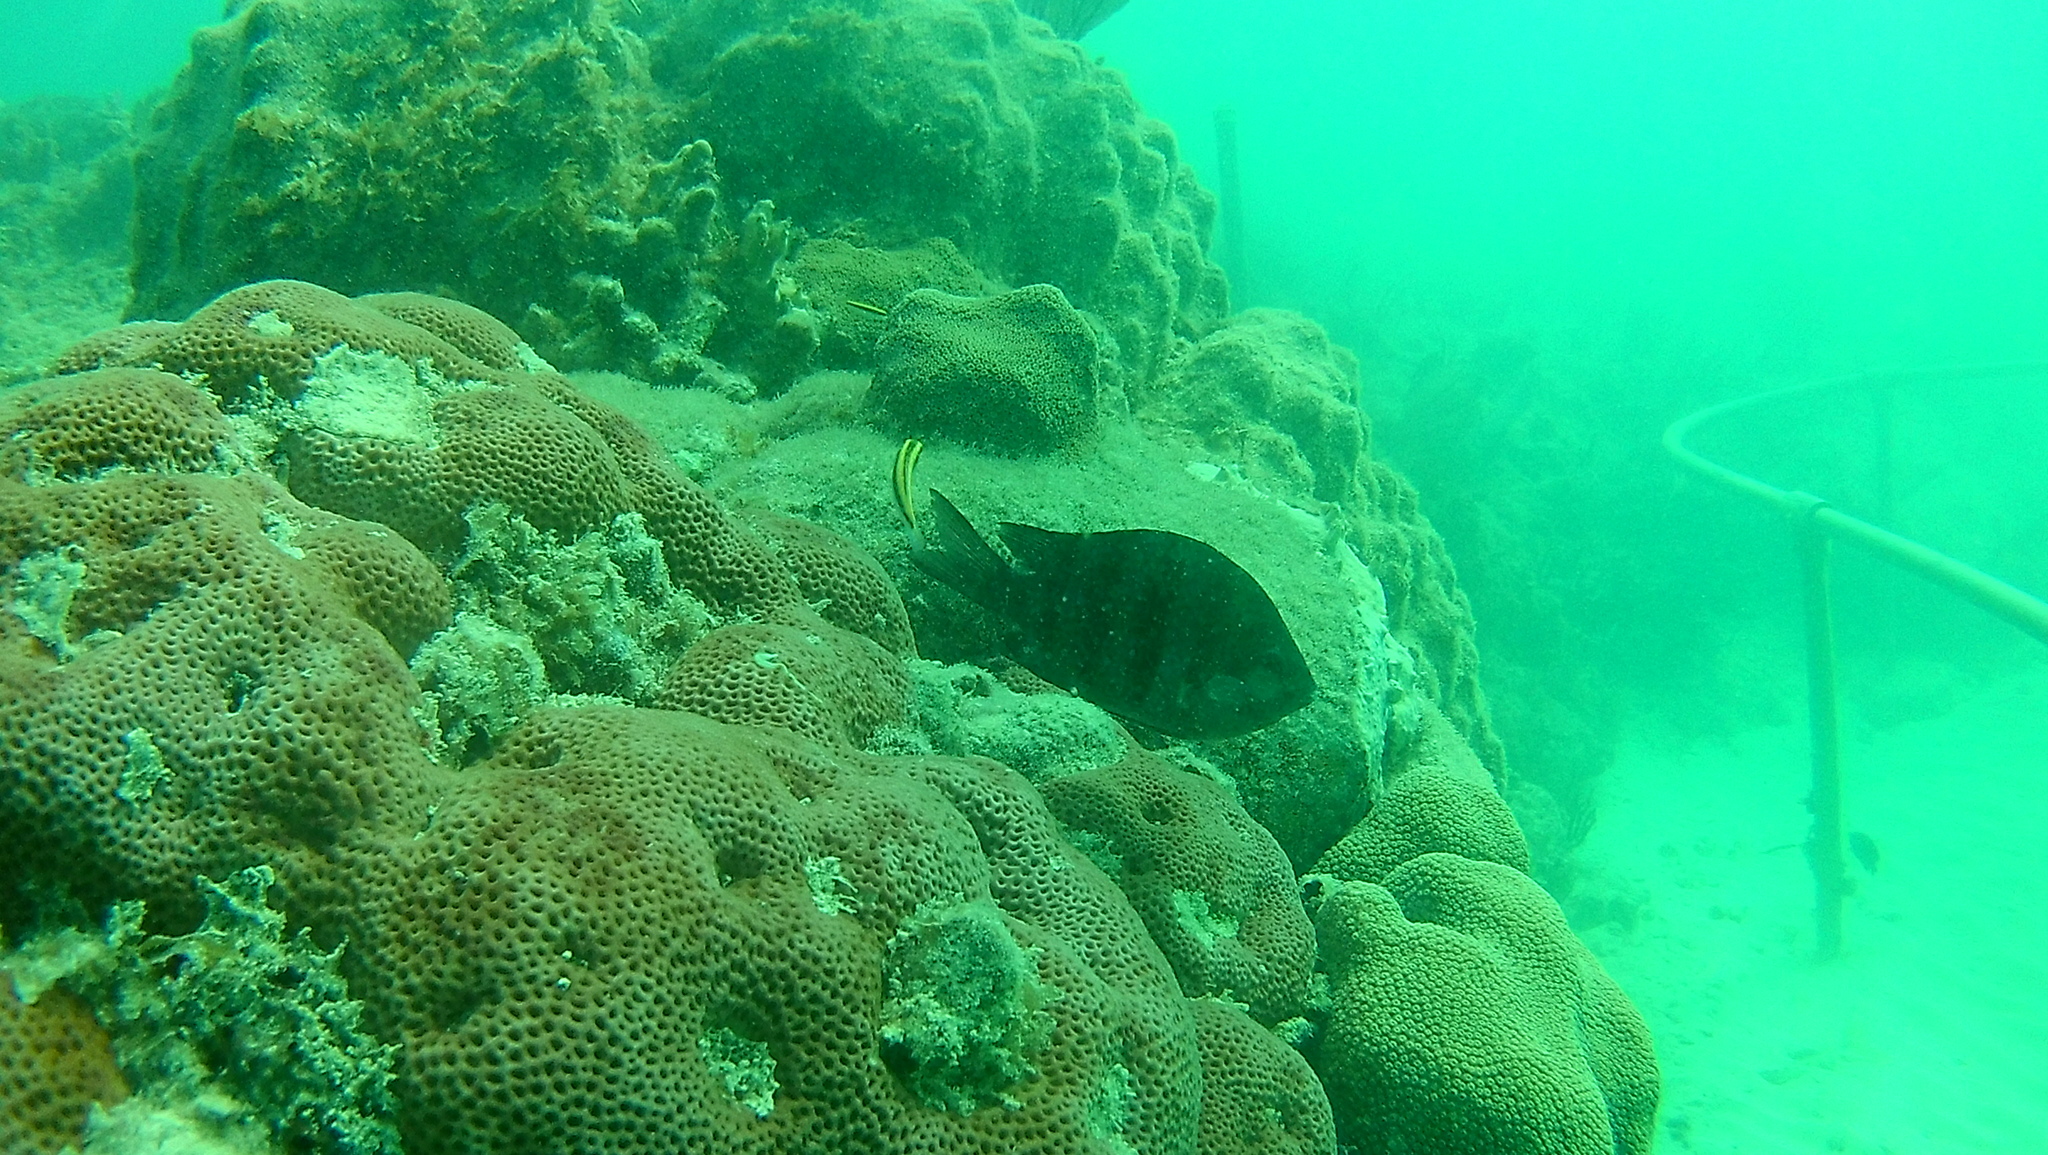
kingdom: Animalia
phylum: Chordata
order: Perciformes
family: Pomacentridae
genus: Abudefduf
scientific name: Abudefduf saxatilis
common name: Sergeant major
